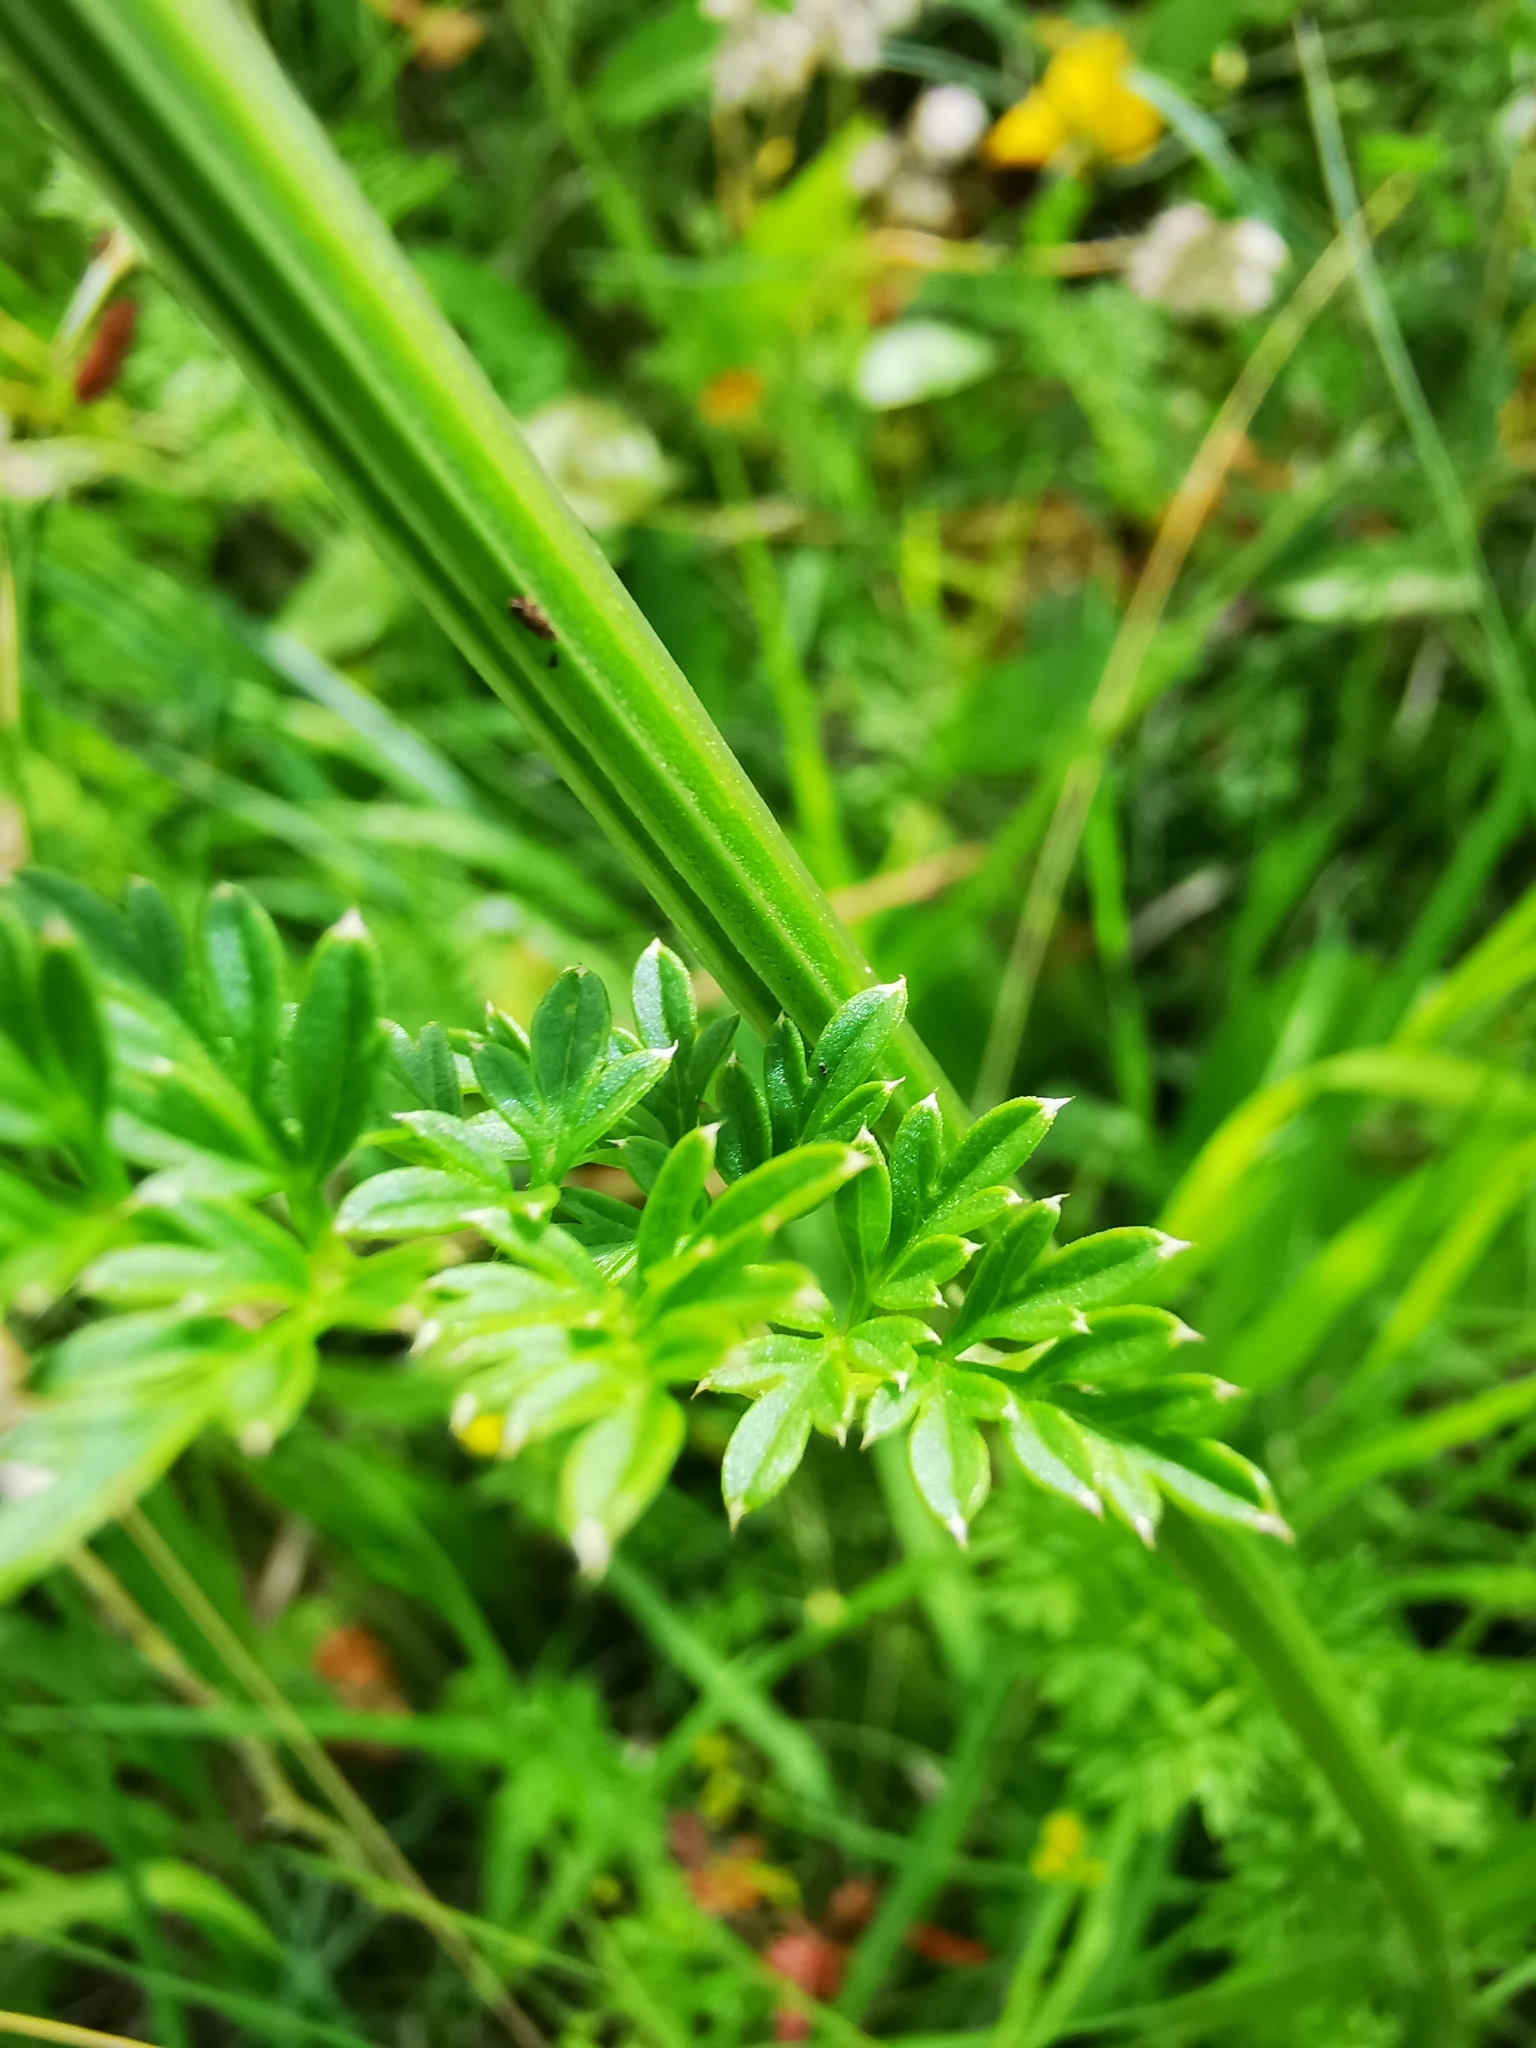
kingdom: Plantae
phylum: Tracheophyta
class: Magnoliopsida
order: Apiales
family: Apiaceae
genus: Selinum
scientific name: Selinum carvifolia
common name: Cambridge milk-parsley
